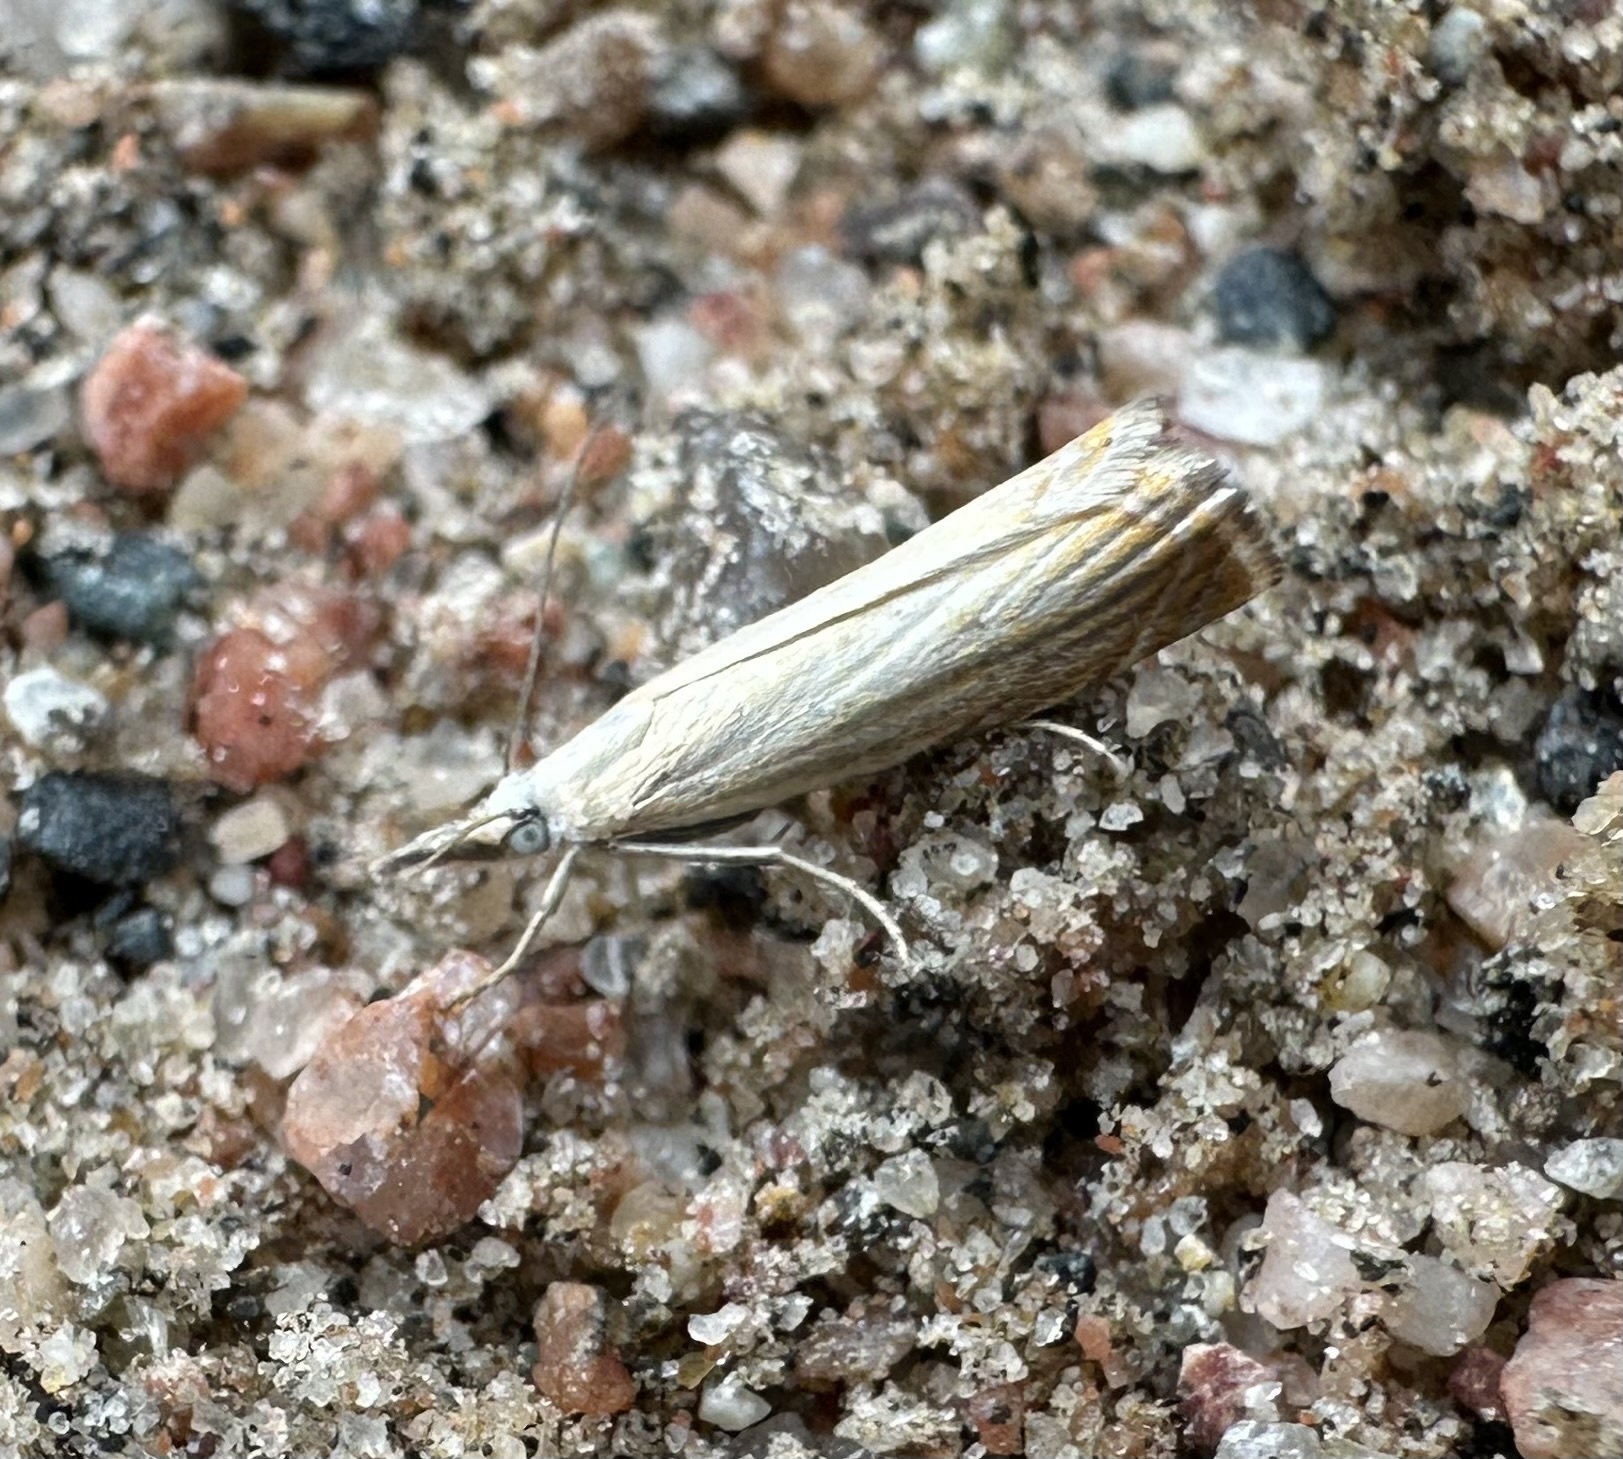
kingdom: Animalia
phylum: Arthropoda
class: Insecta
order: Lepidoptera
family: Crambidae
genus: Chrysoteuchia
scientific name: Chrysoteuchia culmella
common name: Garden grass-veneer
